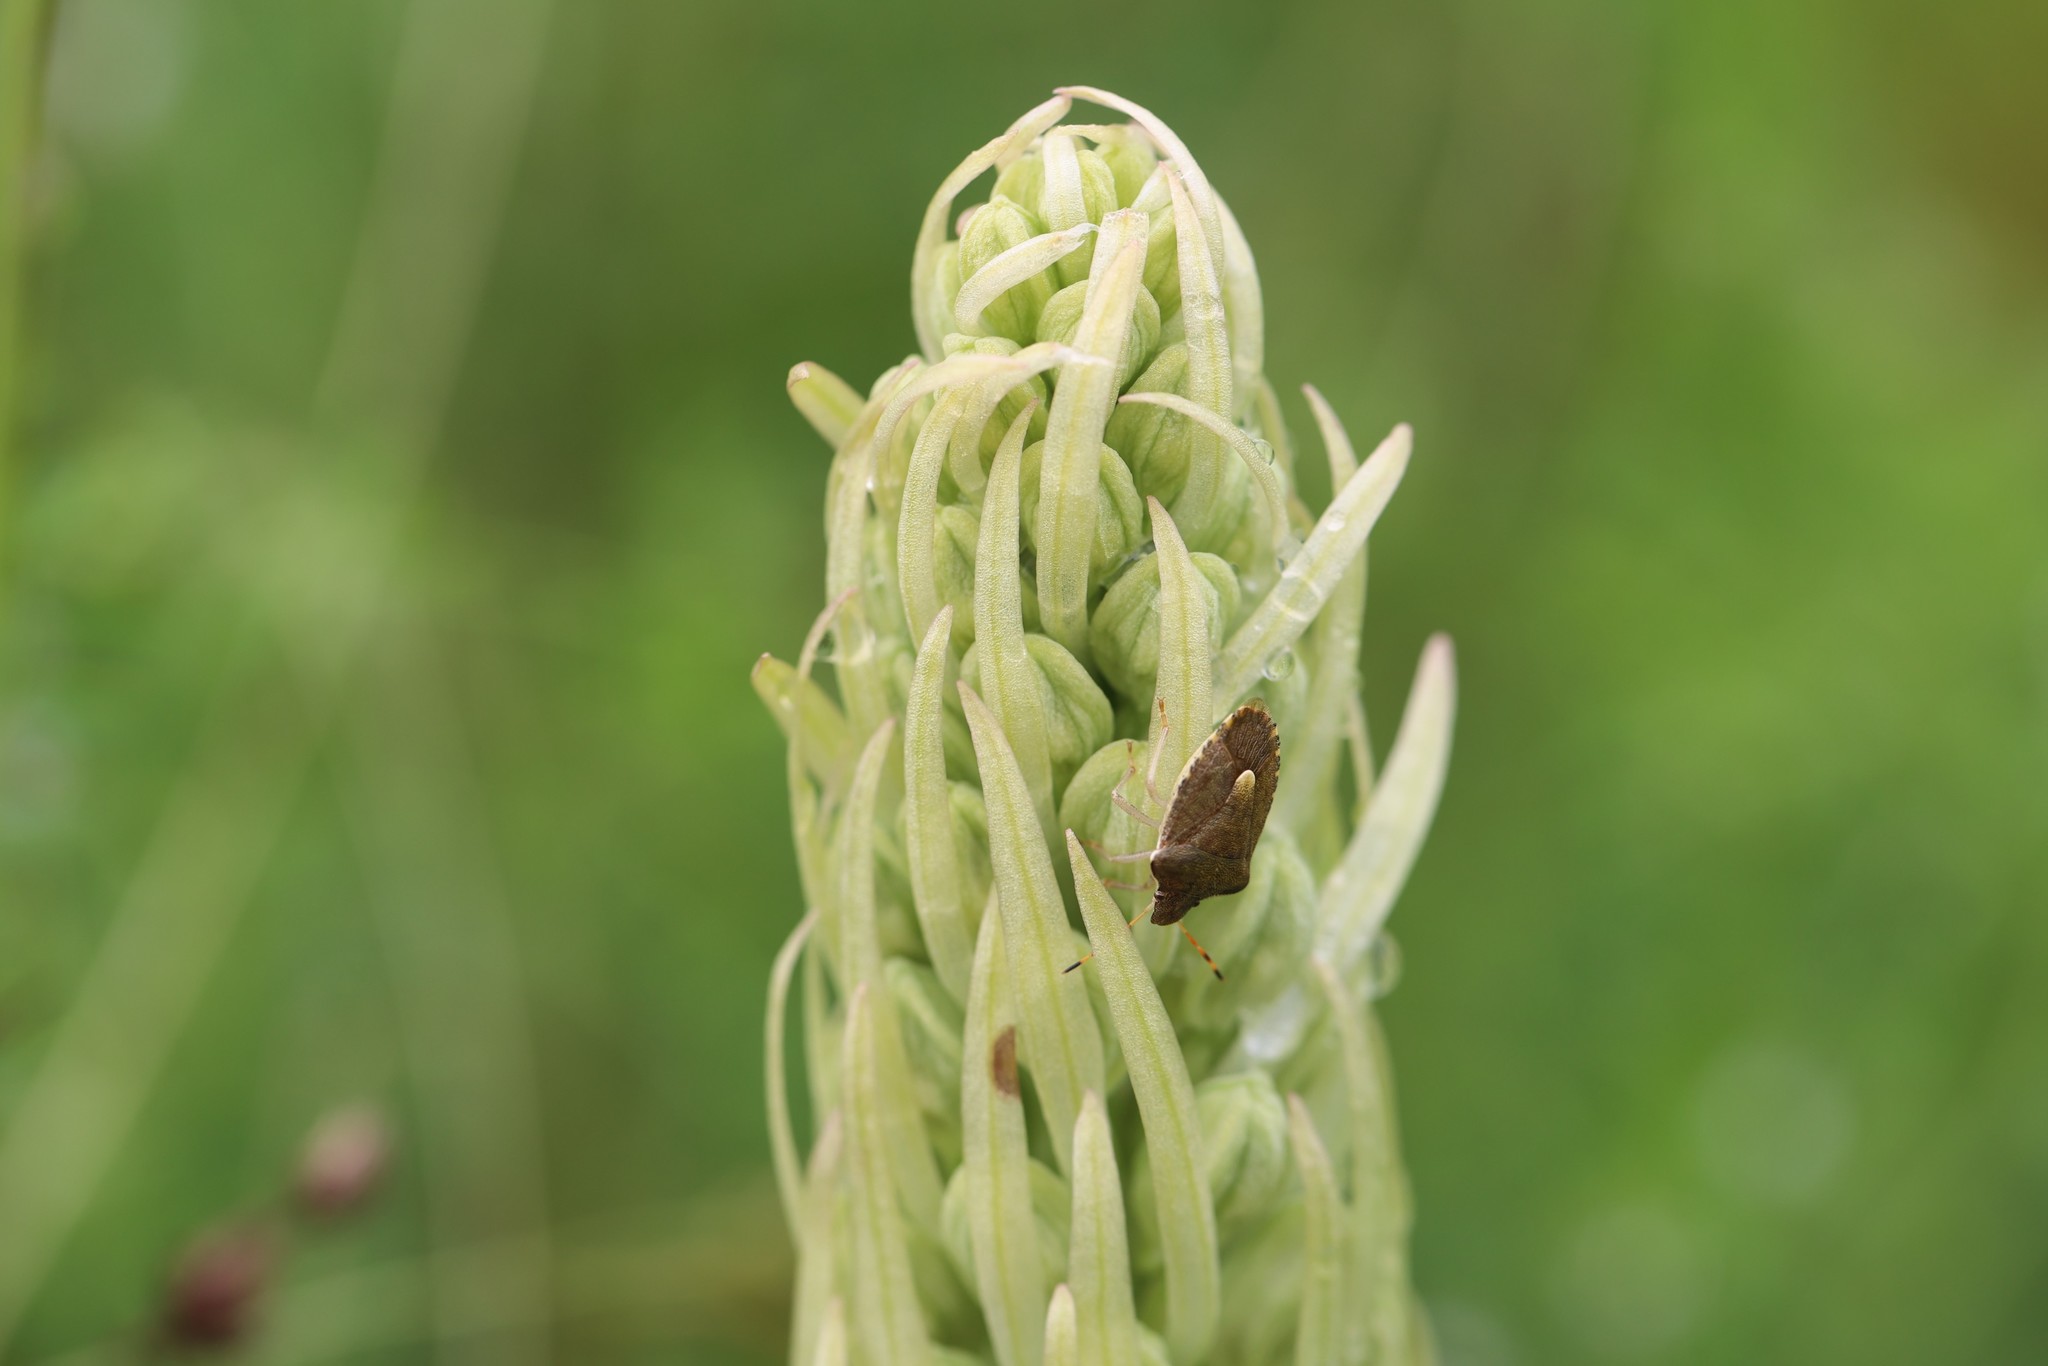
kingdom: Plantae
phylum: Tracheophyta
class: Liliopsida
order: Asparagales
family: Orchidaceae
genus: Himantoglossum
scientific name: Himantoglossum hircinum
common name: Lizard orchid
